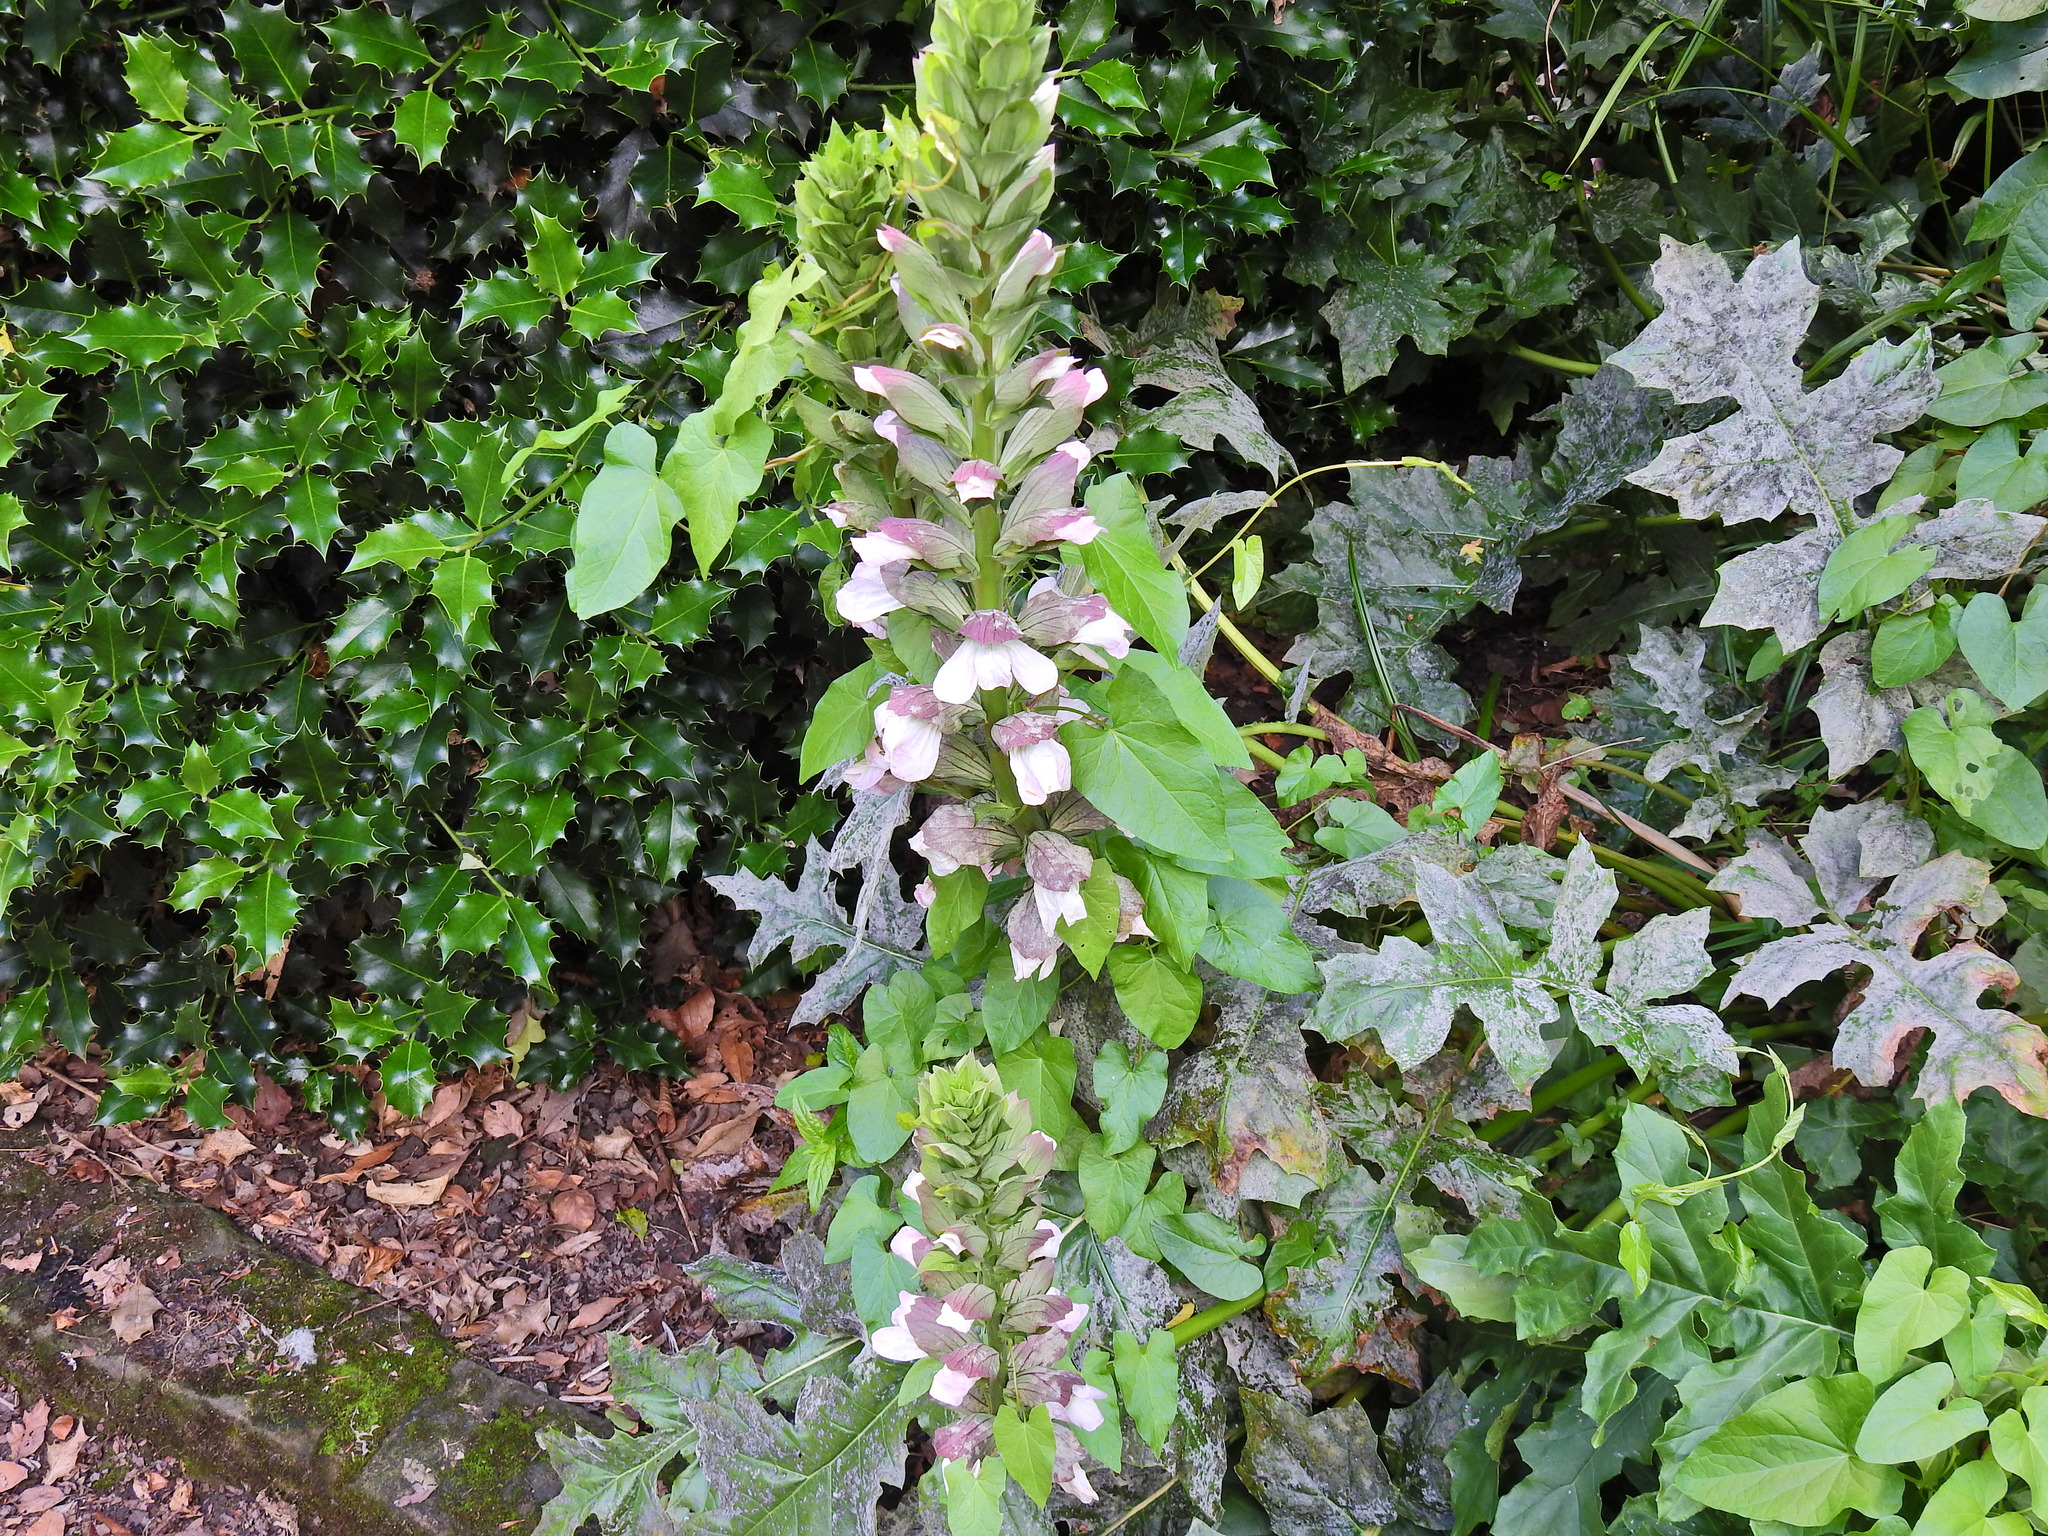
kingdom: Plantae
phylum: Tracheophyta
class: Magnoliopsida
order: Lamiales
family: Acanthaceae
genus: Acanthus
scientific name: Acanthus mollis
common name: Bear's-breech
